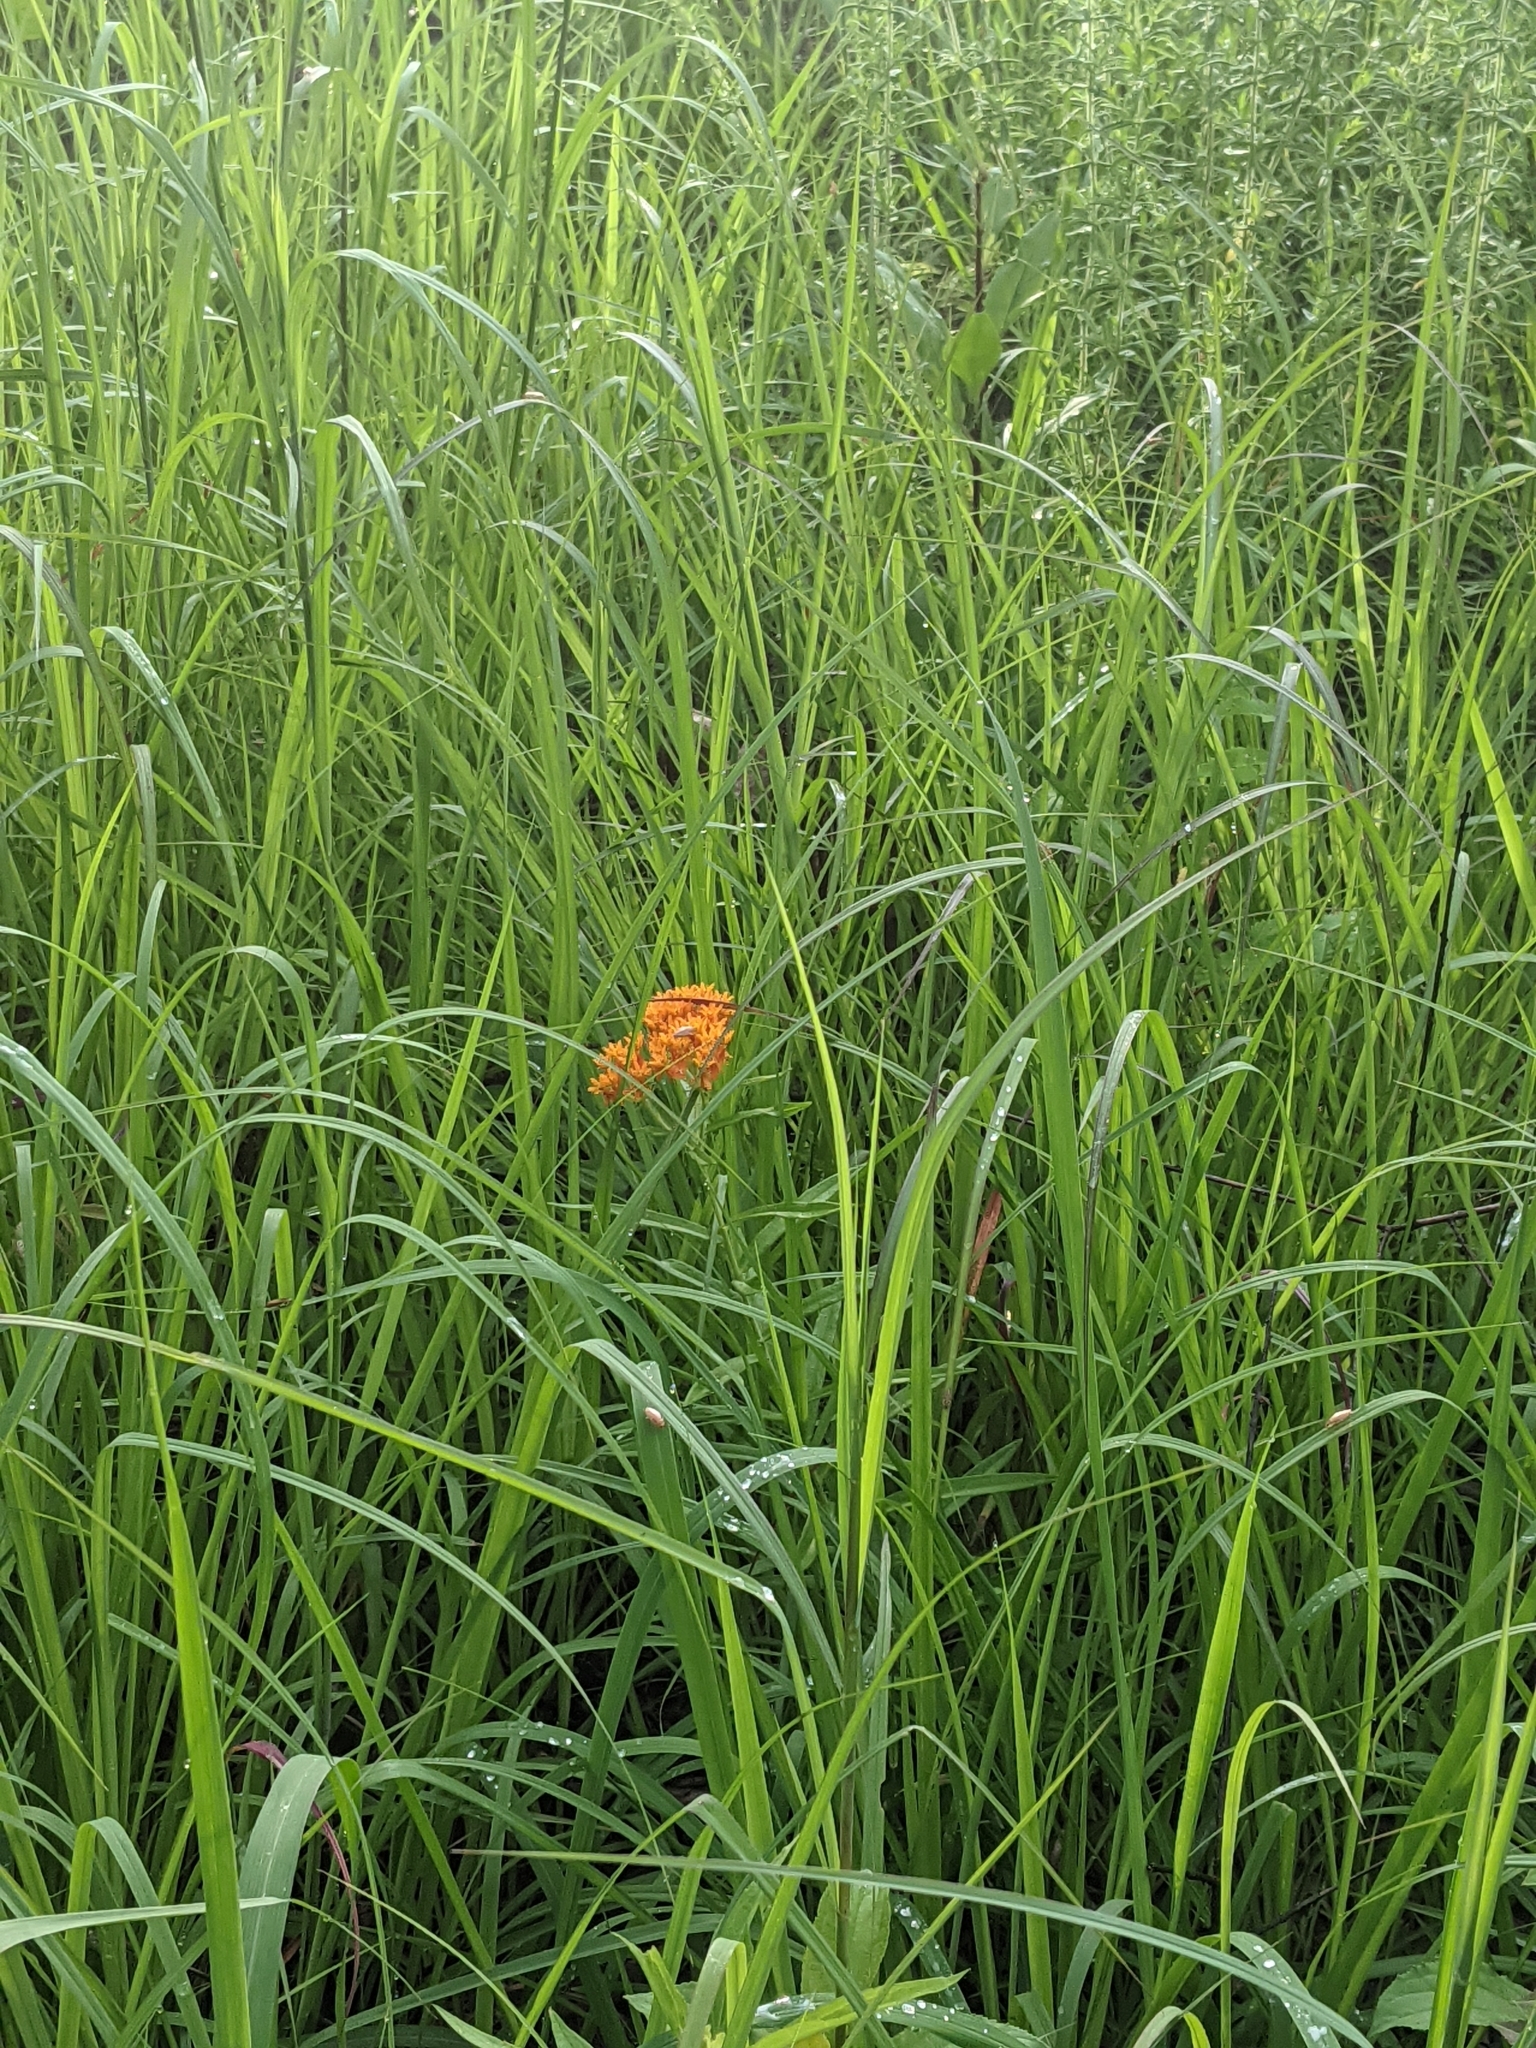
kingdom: Plantae
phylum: Tracheophyta
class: Magnoliopsida
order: Gentianales
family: Apocynaceae
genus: Asclepias
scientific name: Asclepias tuberosa
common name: Butterfly milkweed
